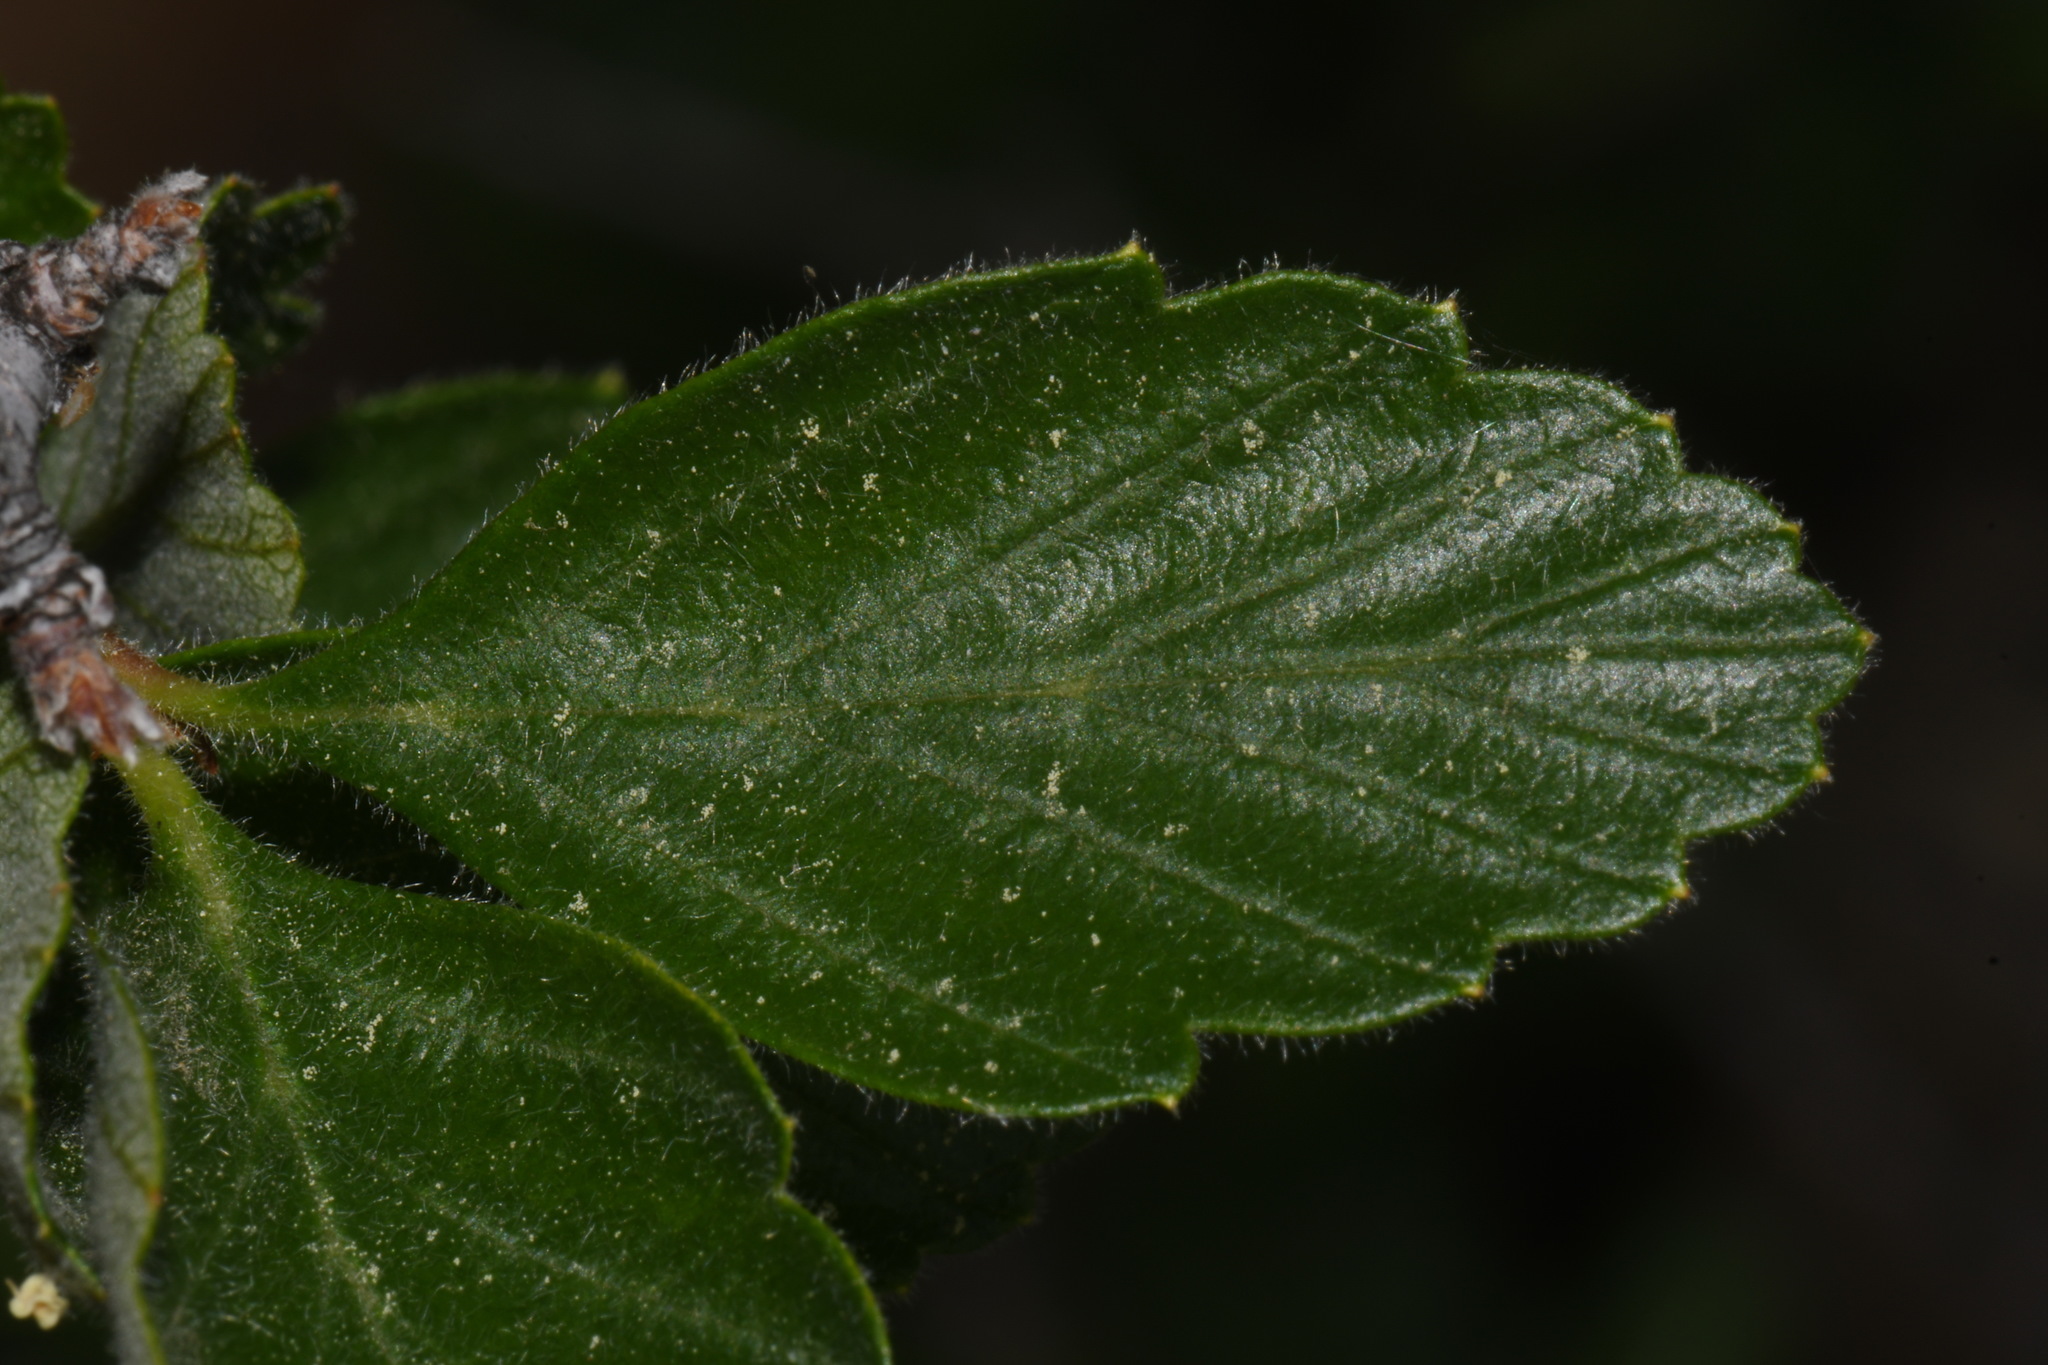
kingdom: Plantae
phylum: Tracheophyta
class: Magnoliopsida
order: Rosales
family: Rosaceae
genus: Cercocarpus
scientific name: Cercocarpus montanus
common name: Alder-leaf cercocarpus
